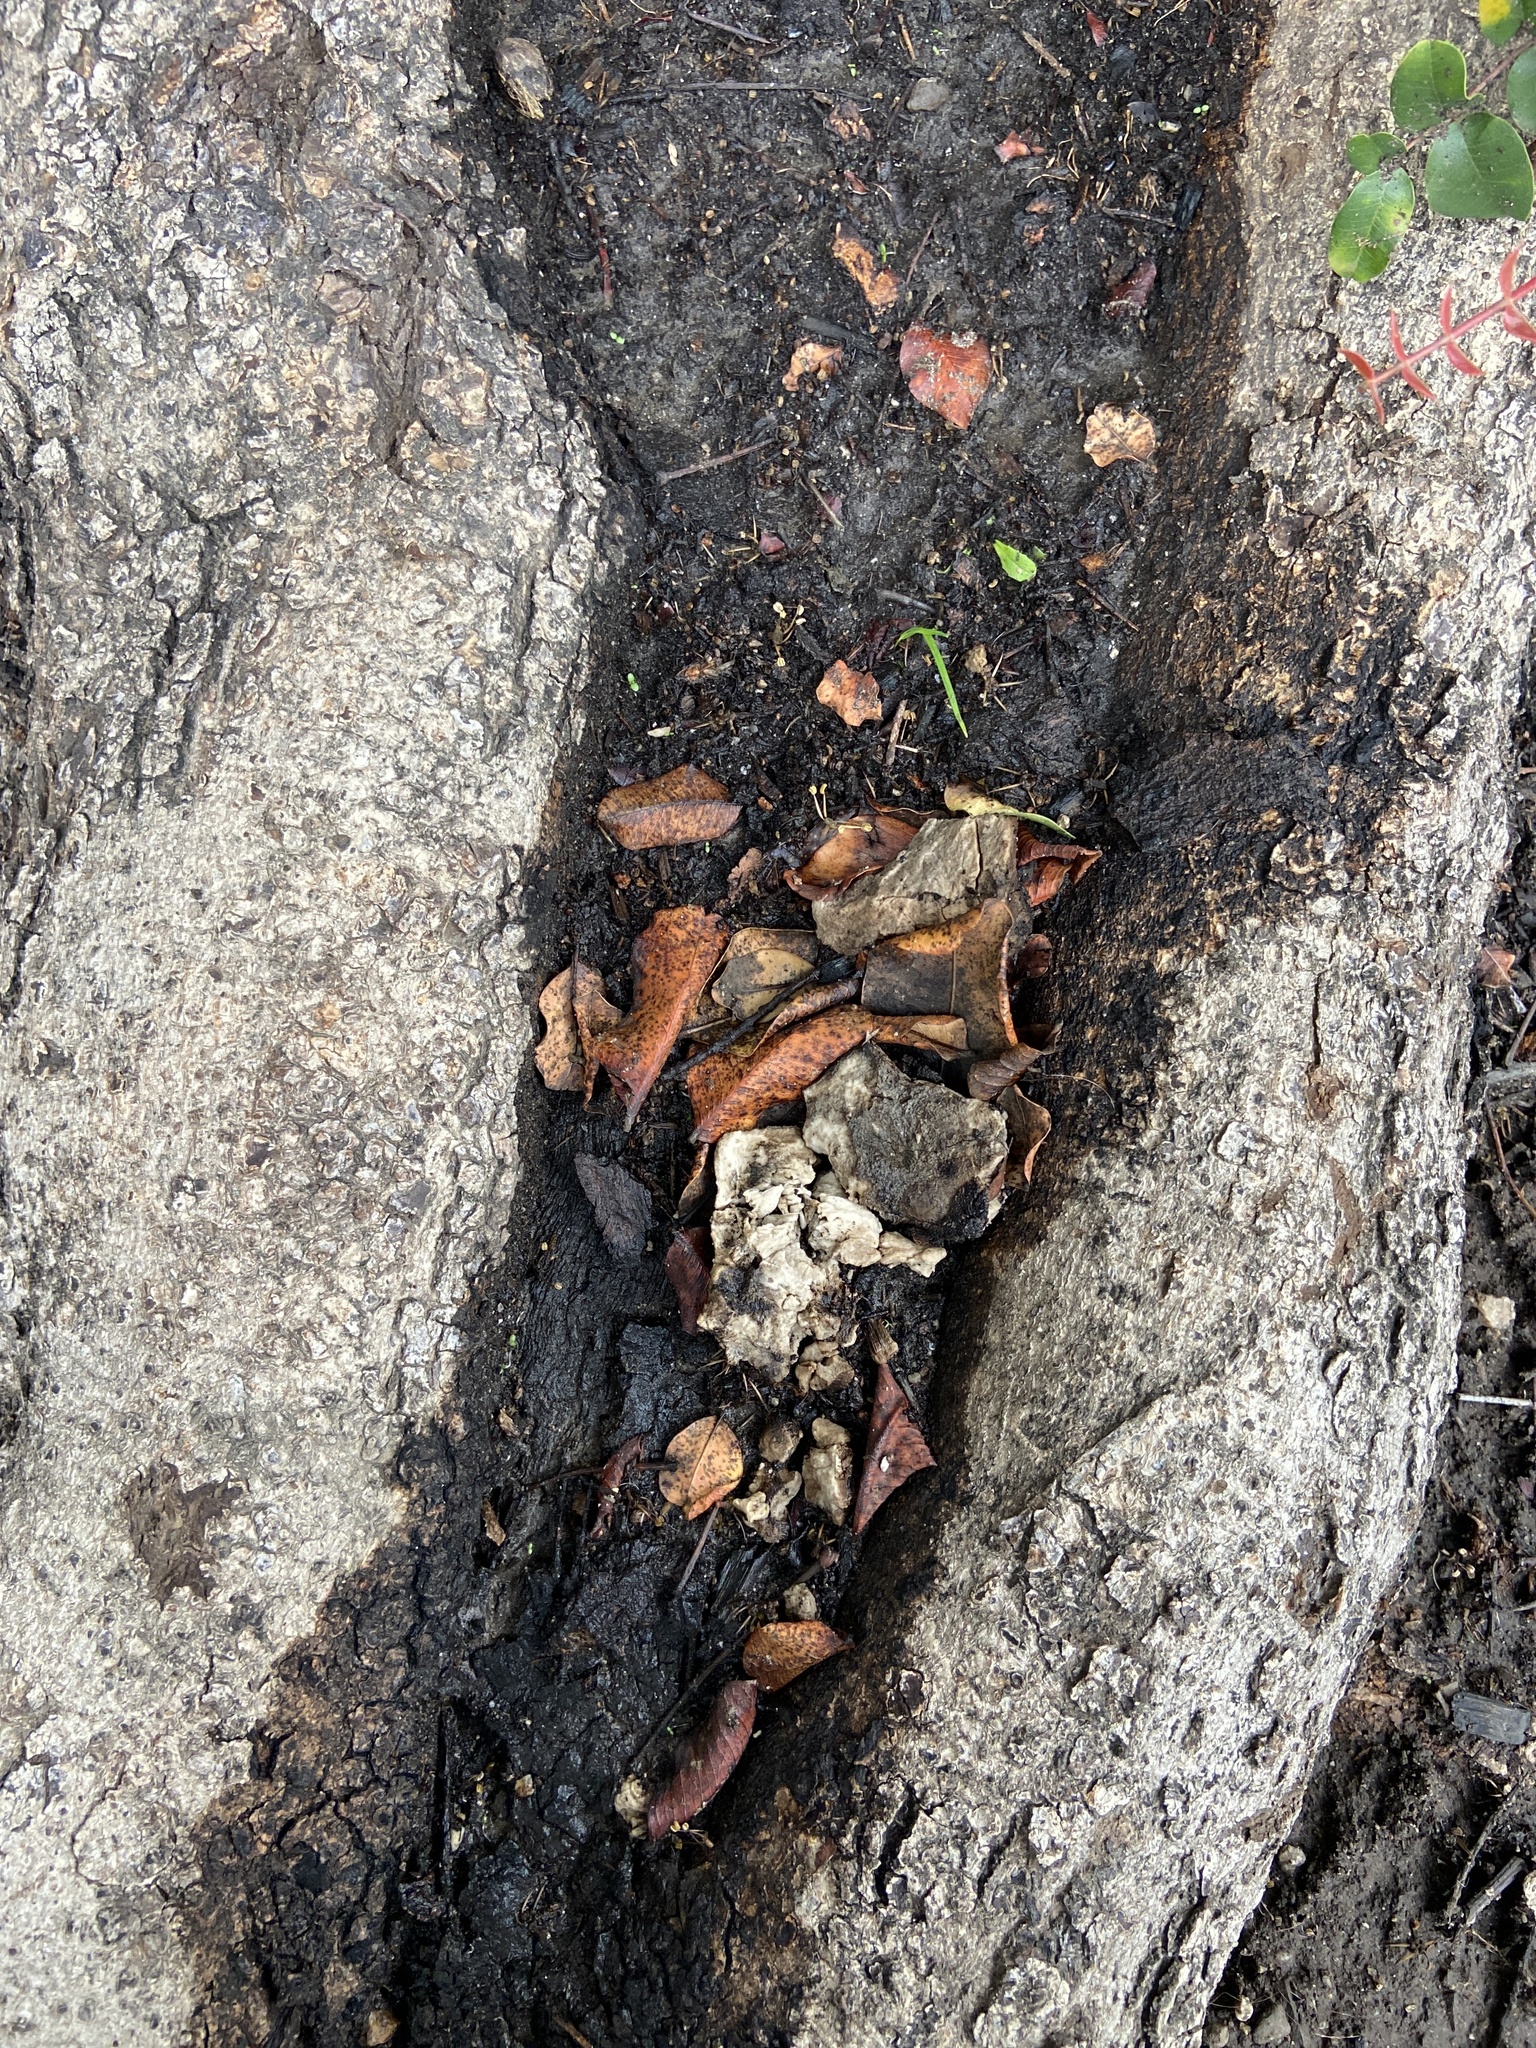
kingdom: Fungi
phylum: Basidiomycota
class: Agaricomycetes
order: Polyporales
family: Laetiporaceae
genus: Laetiporus
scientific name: Laetiporus gilbertsonii
